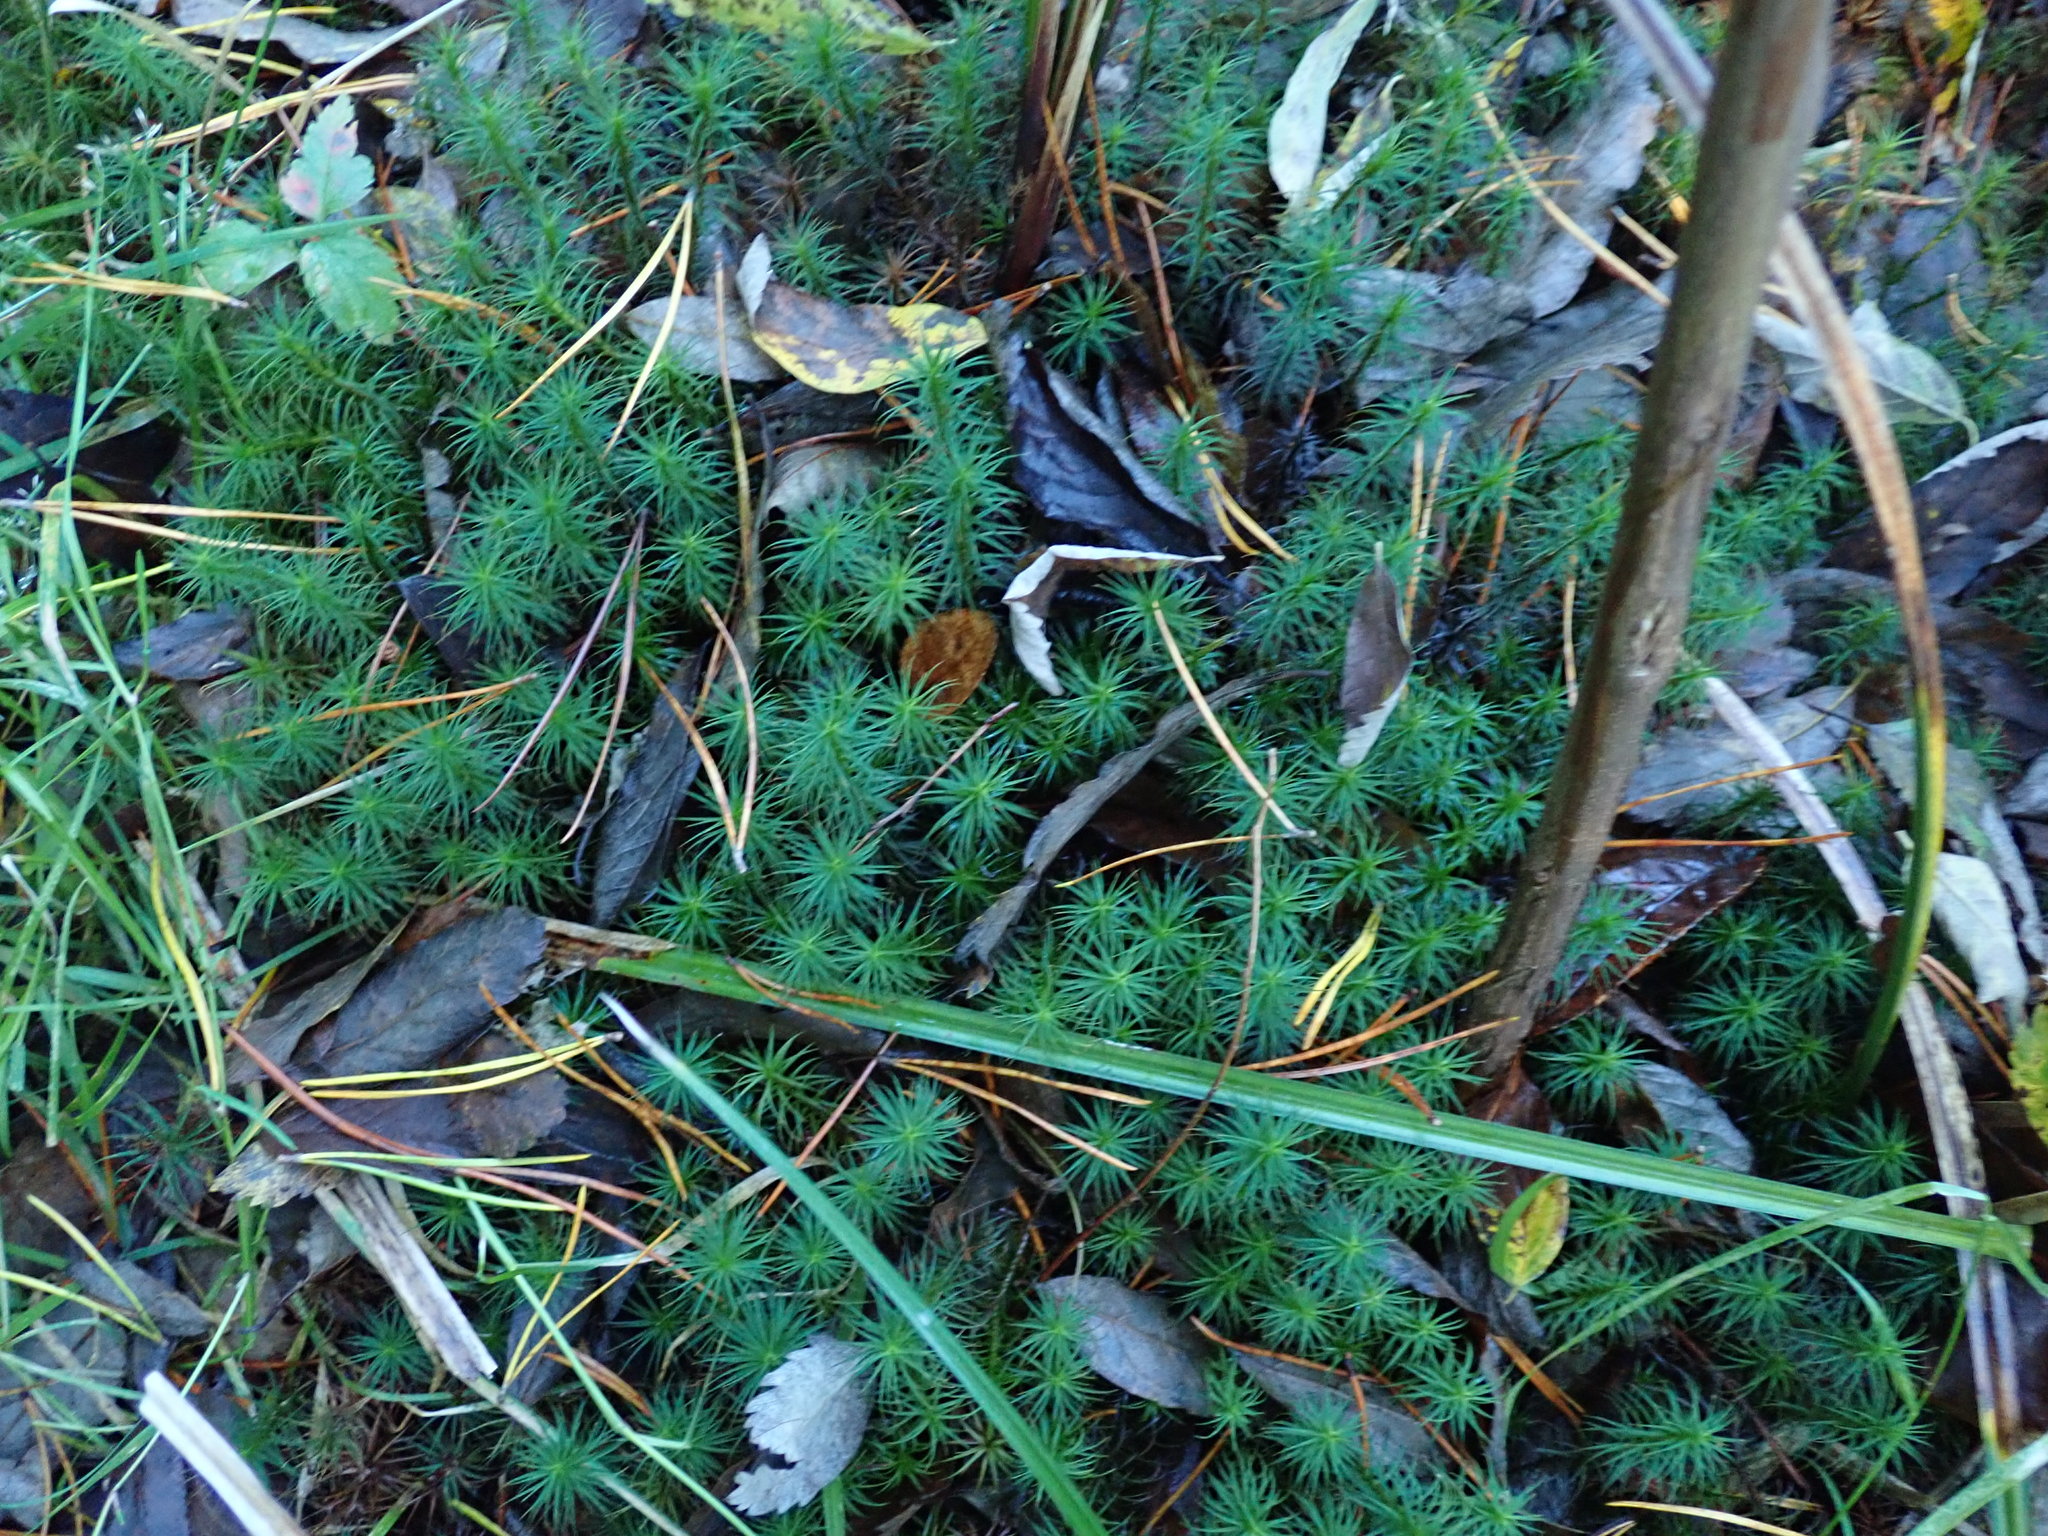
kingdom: Plantae
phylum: Bryophyta
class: Polytrichopsida
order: Polytrichales
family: Polytrichaceae
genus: Polytrichum
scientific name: Polytrichum commune
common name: Common haircap
